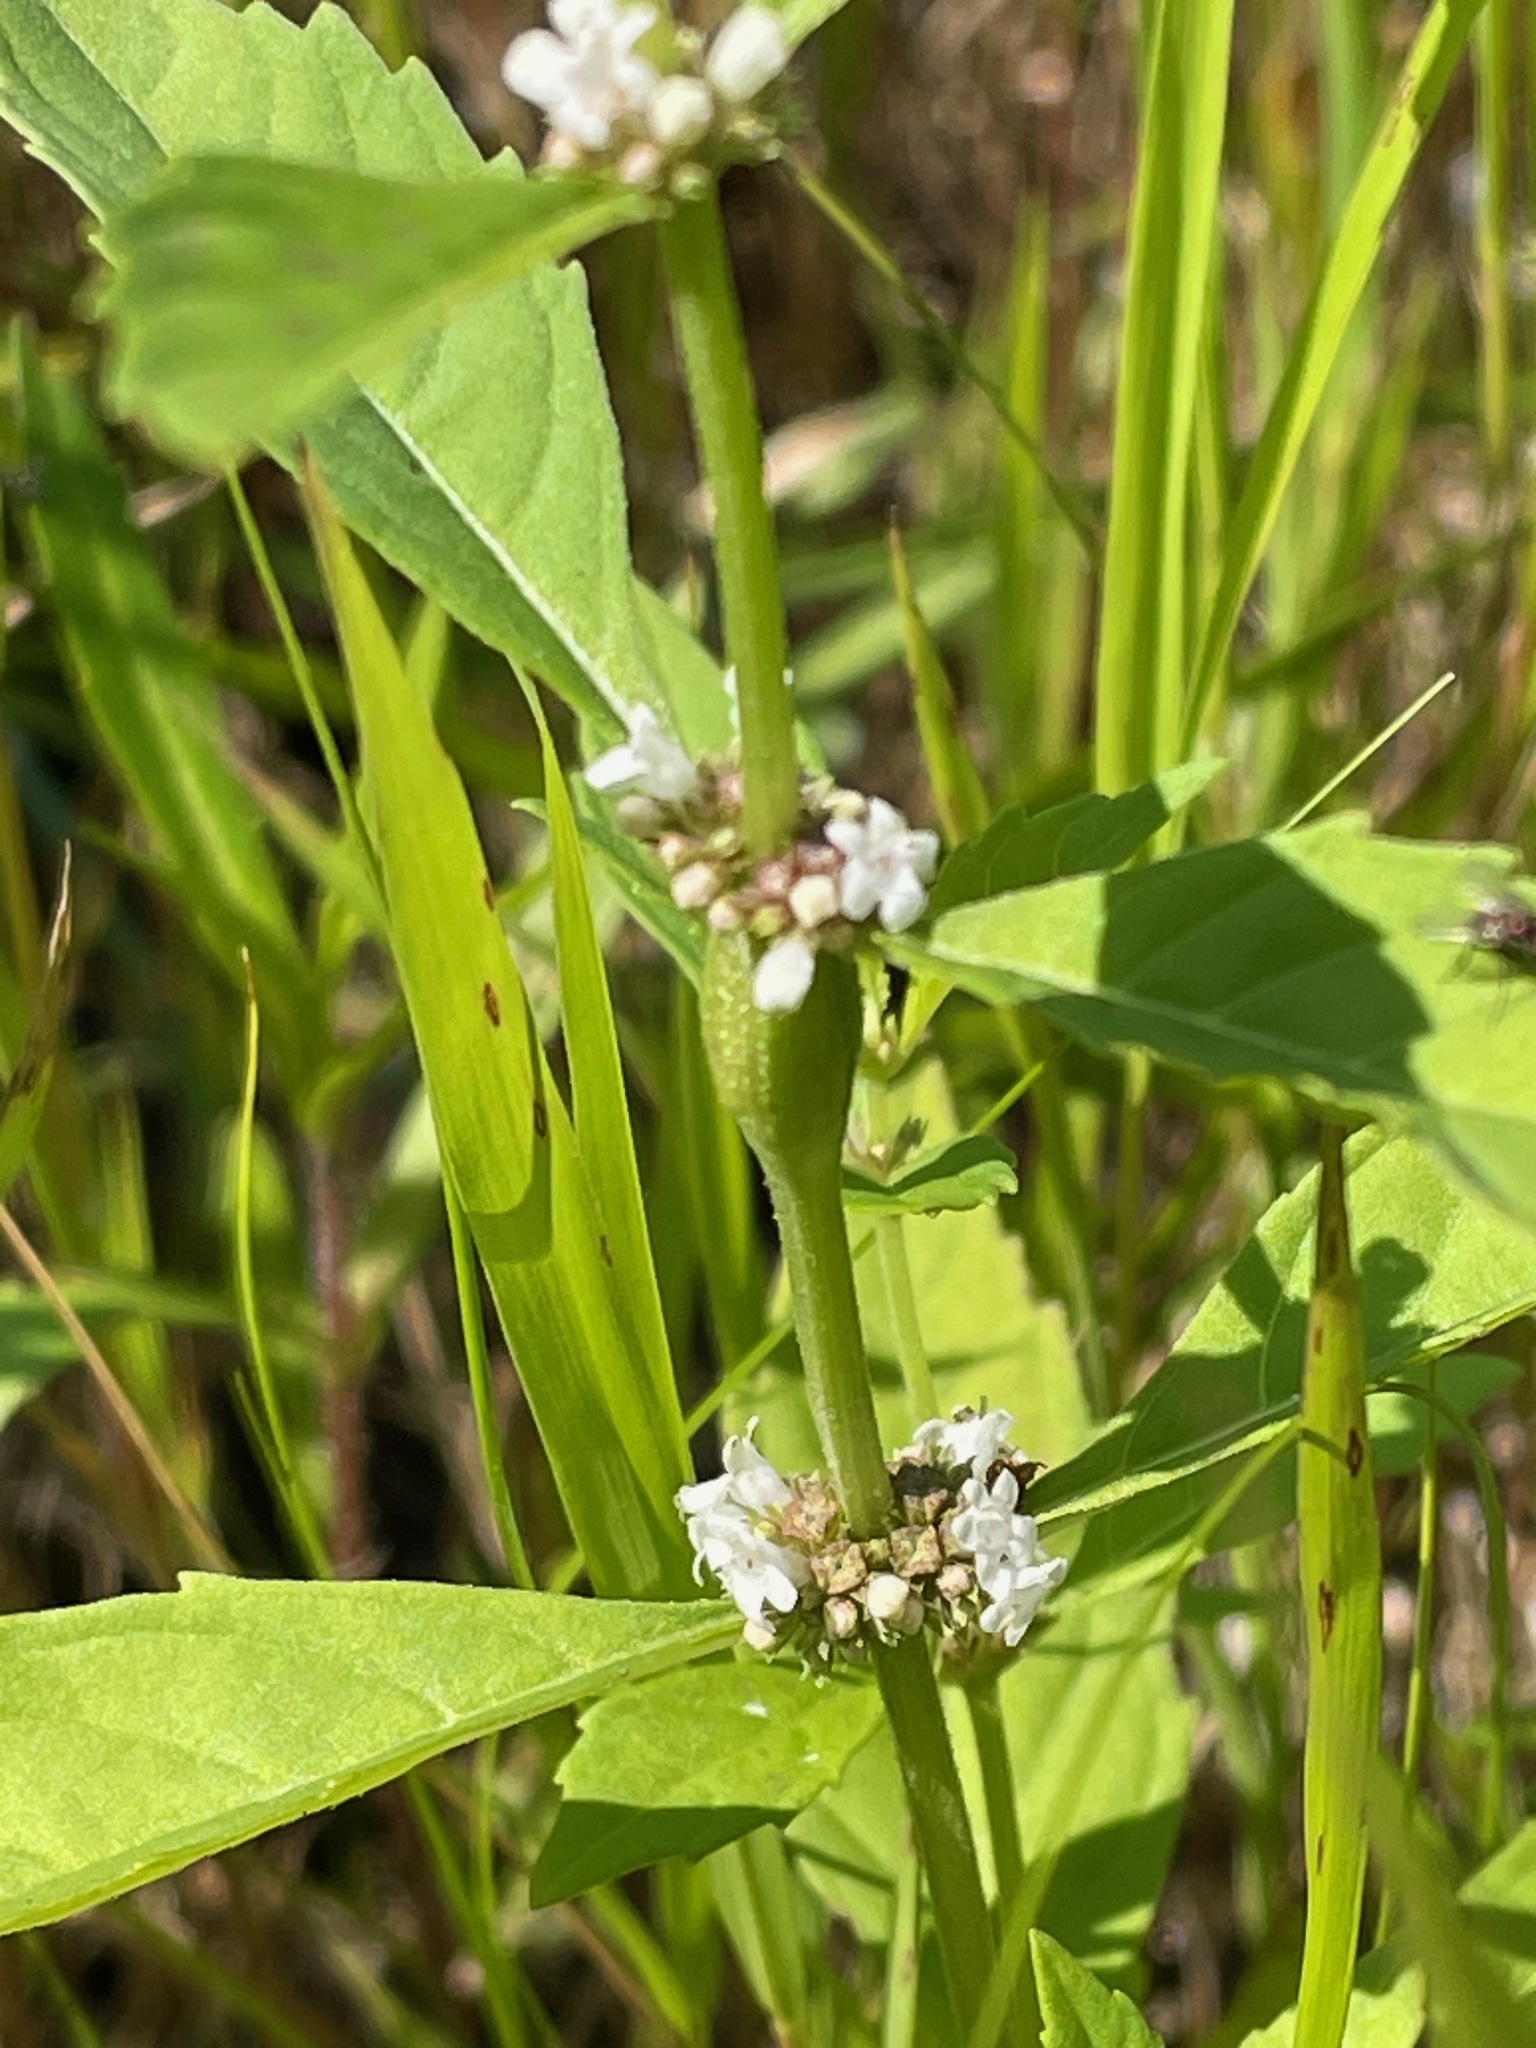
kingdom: Plantae
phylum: Tracheophyta
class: Magnoliopsida
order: Lamiales
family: Lamiaceae
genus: Lycopus
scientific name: Lycopus uniflorus
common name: Northern bugleweed
